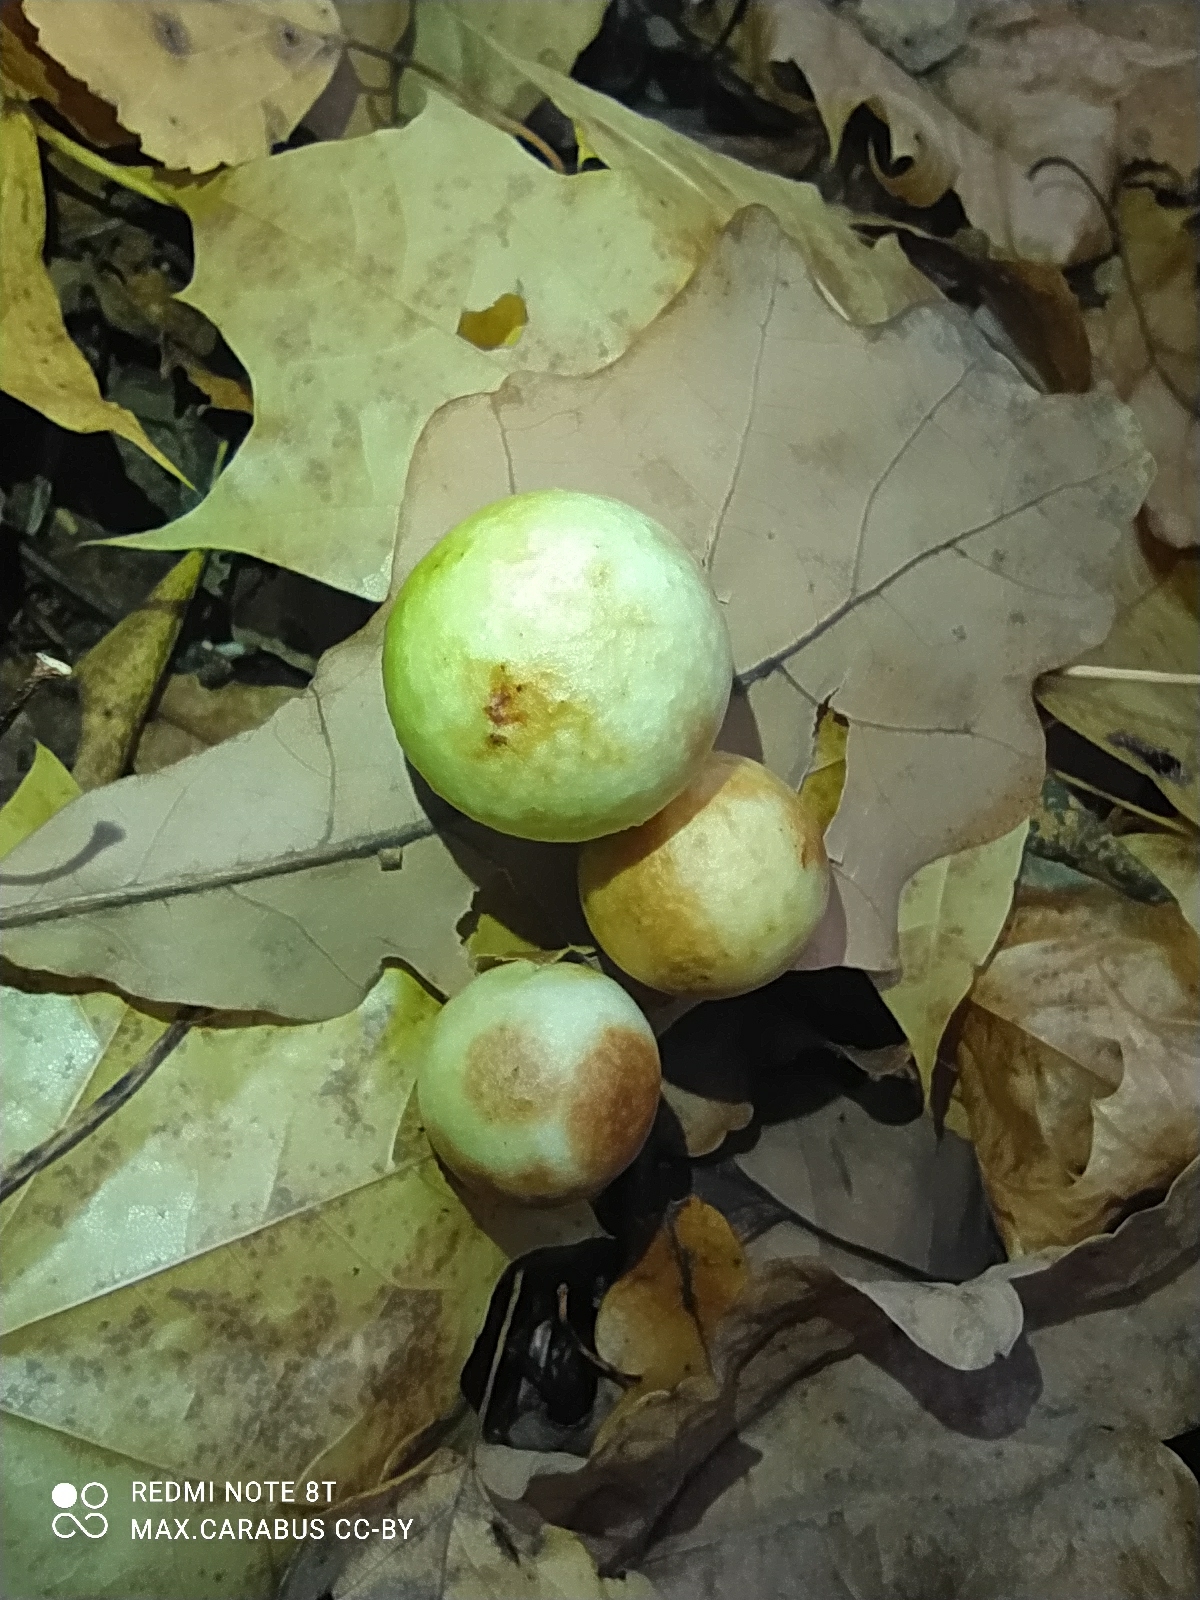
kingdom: Animalia
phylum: Arthropoda
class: Insecta
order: Hymenoptera
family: Cynipidae
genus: Cynips
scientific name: Cynips quercusfolii
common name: Cherry gall
